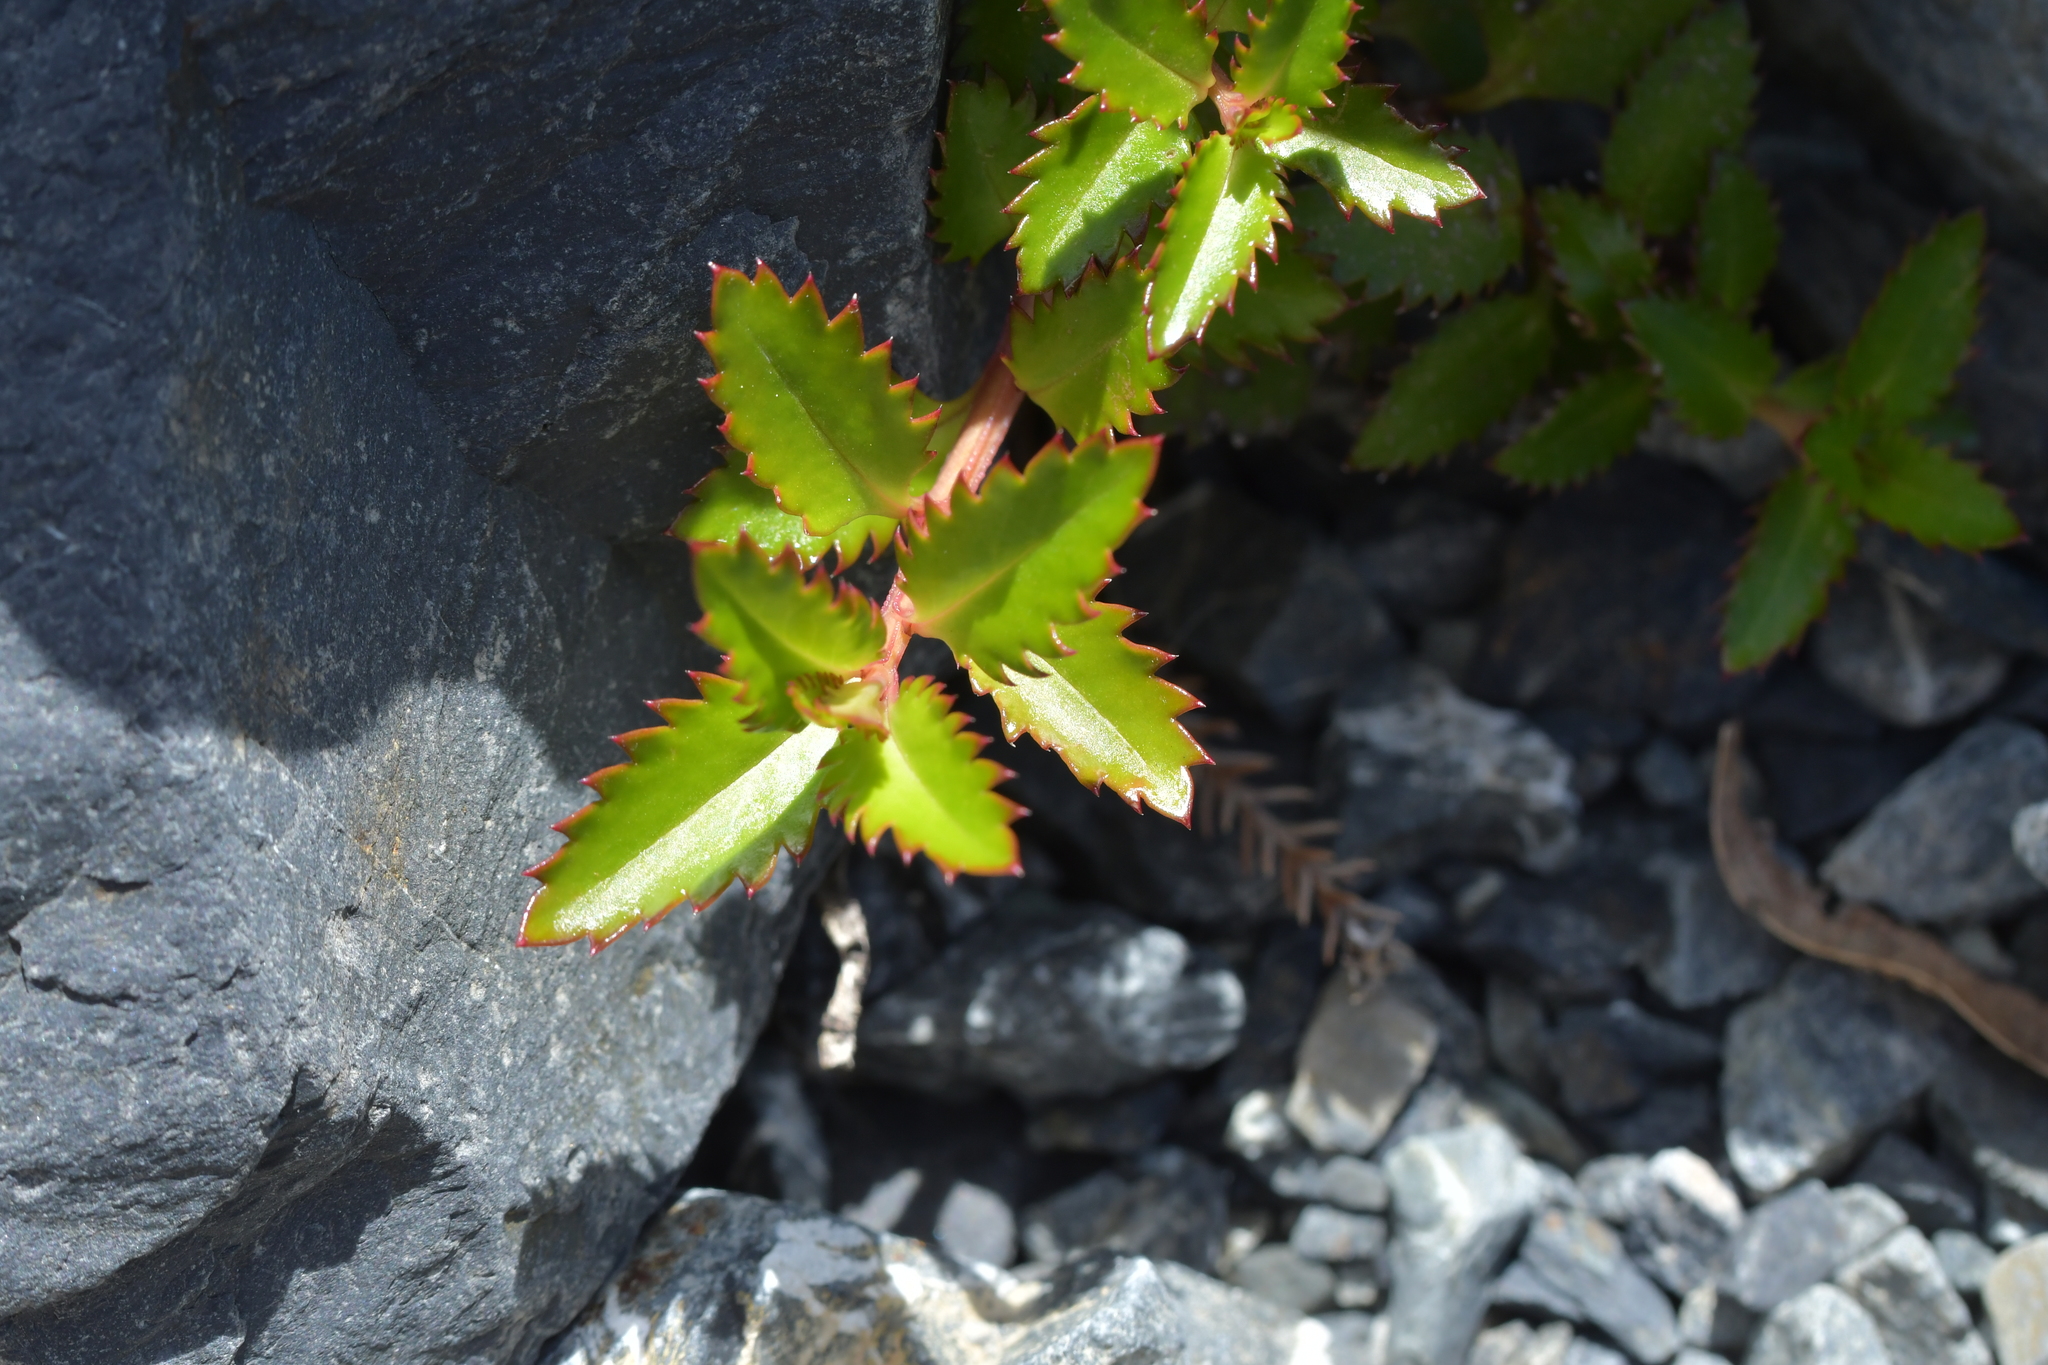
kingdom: Plantae
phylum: Tracheophyta
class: Magnoliopsida
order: Saxifragales
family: Haloragaceae
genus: Haloragis
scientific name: Haloragis erecta
